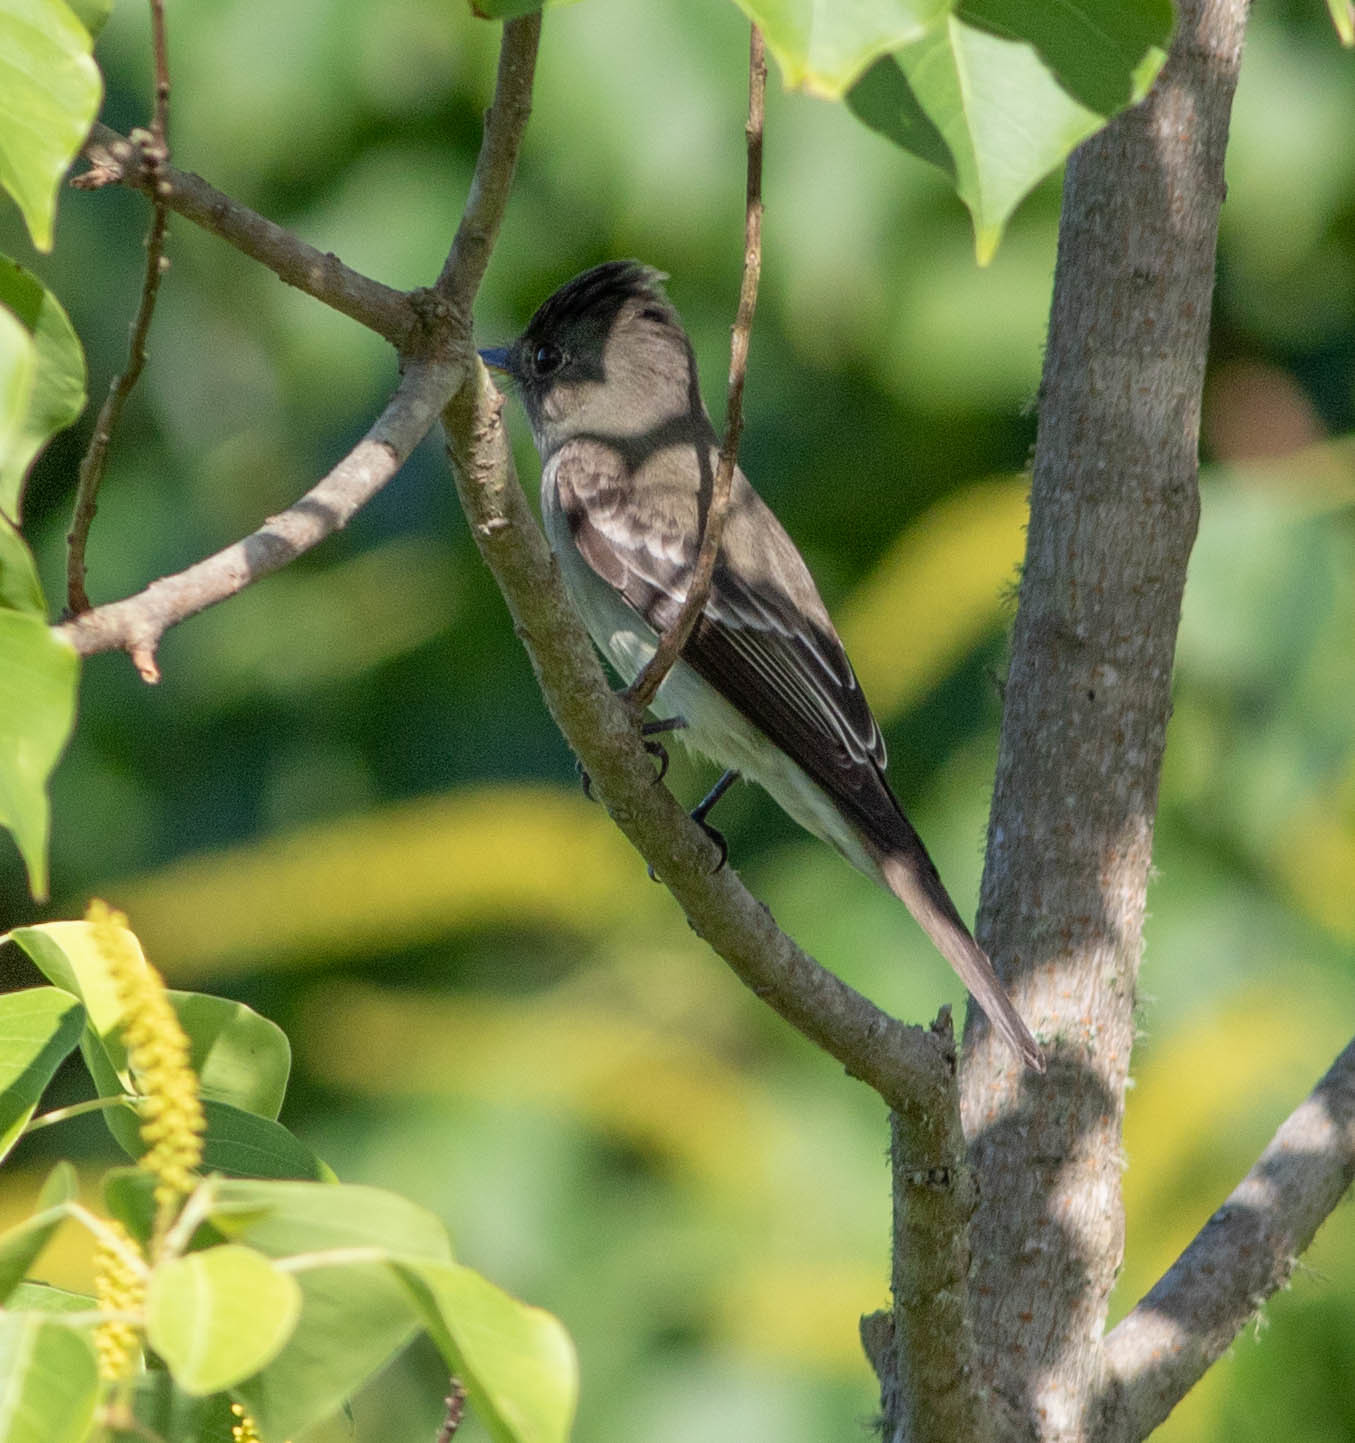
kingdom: Animalia
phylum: Chordata
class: Aves
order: Passeriformes
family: Tyrannidae
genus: Contopus
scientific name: Contopus virens
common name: Eastern wood-pewee
